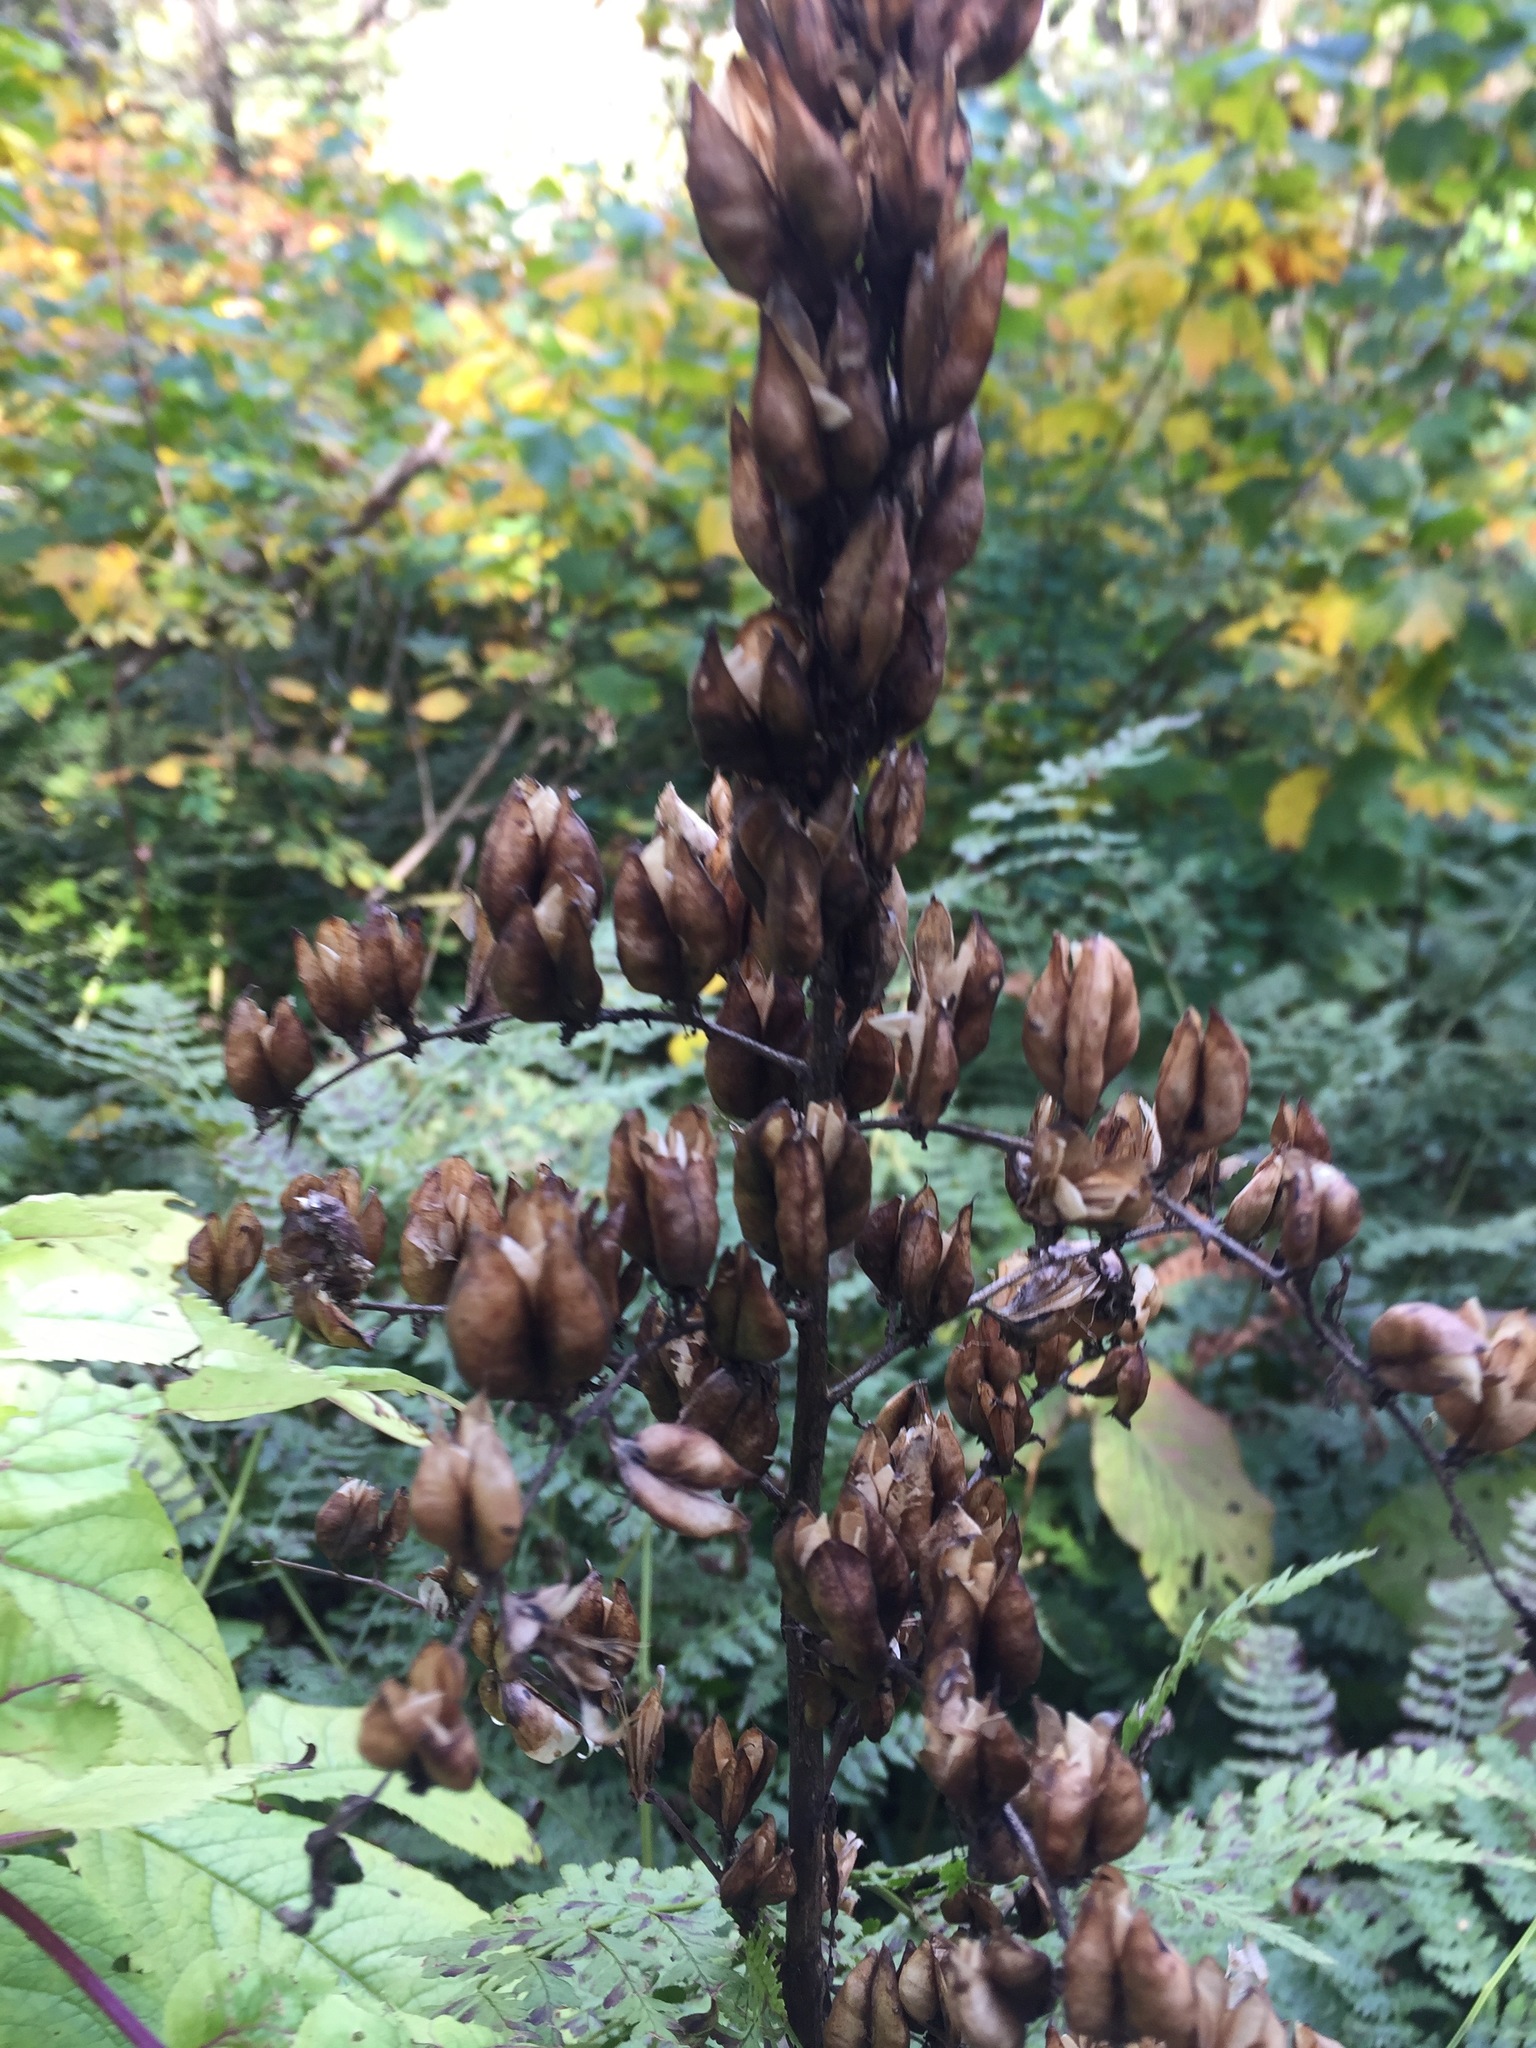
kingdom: Plantae
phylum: Tracheophyta
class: Liliopsida
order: Liliales
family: Melanthiaceae
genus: Veratrum
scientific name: Veratrum viride
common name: American false hellebore
